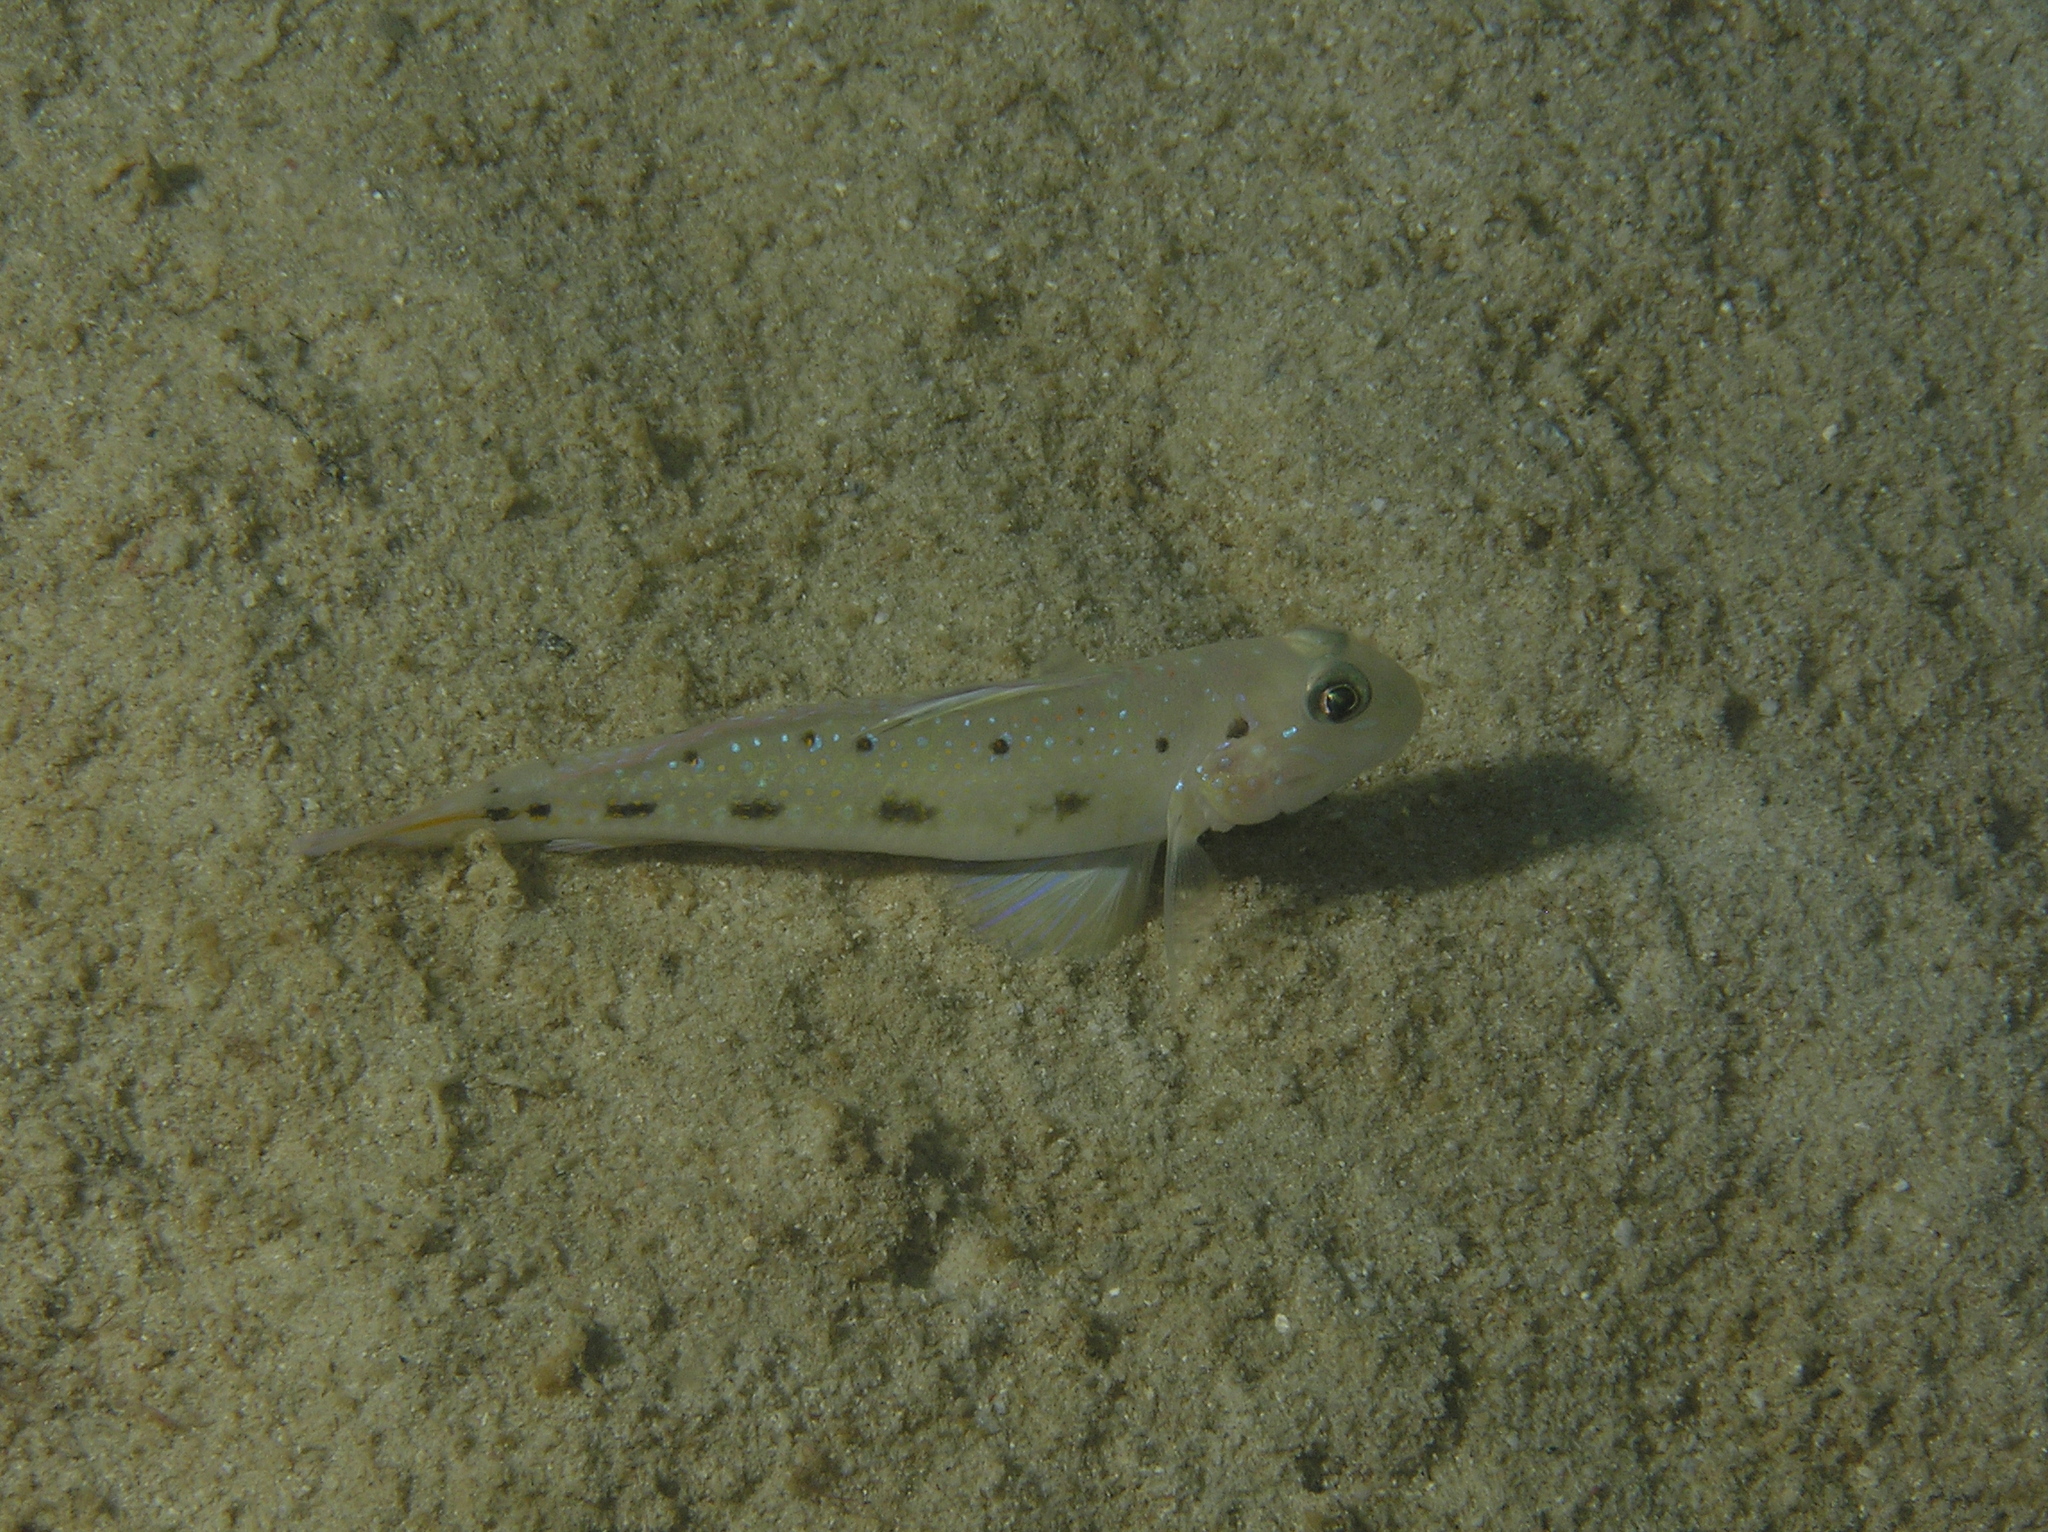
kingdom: Animalia
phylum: Chordata
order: Perciformes
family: Gobiidae
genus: Oplopomus
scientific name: Oplopomus oplopomus
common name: Spinecheek goby
